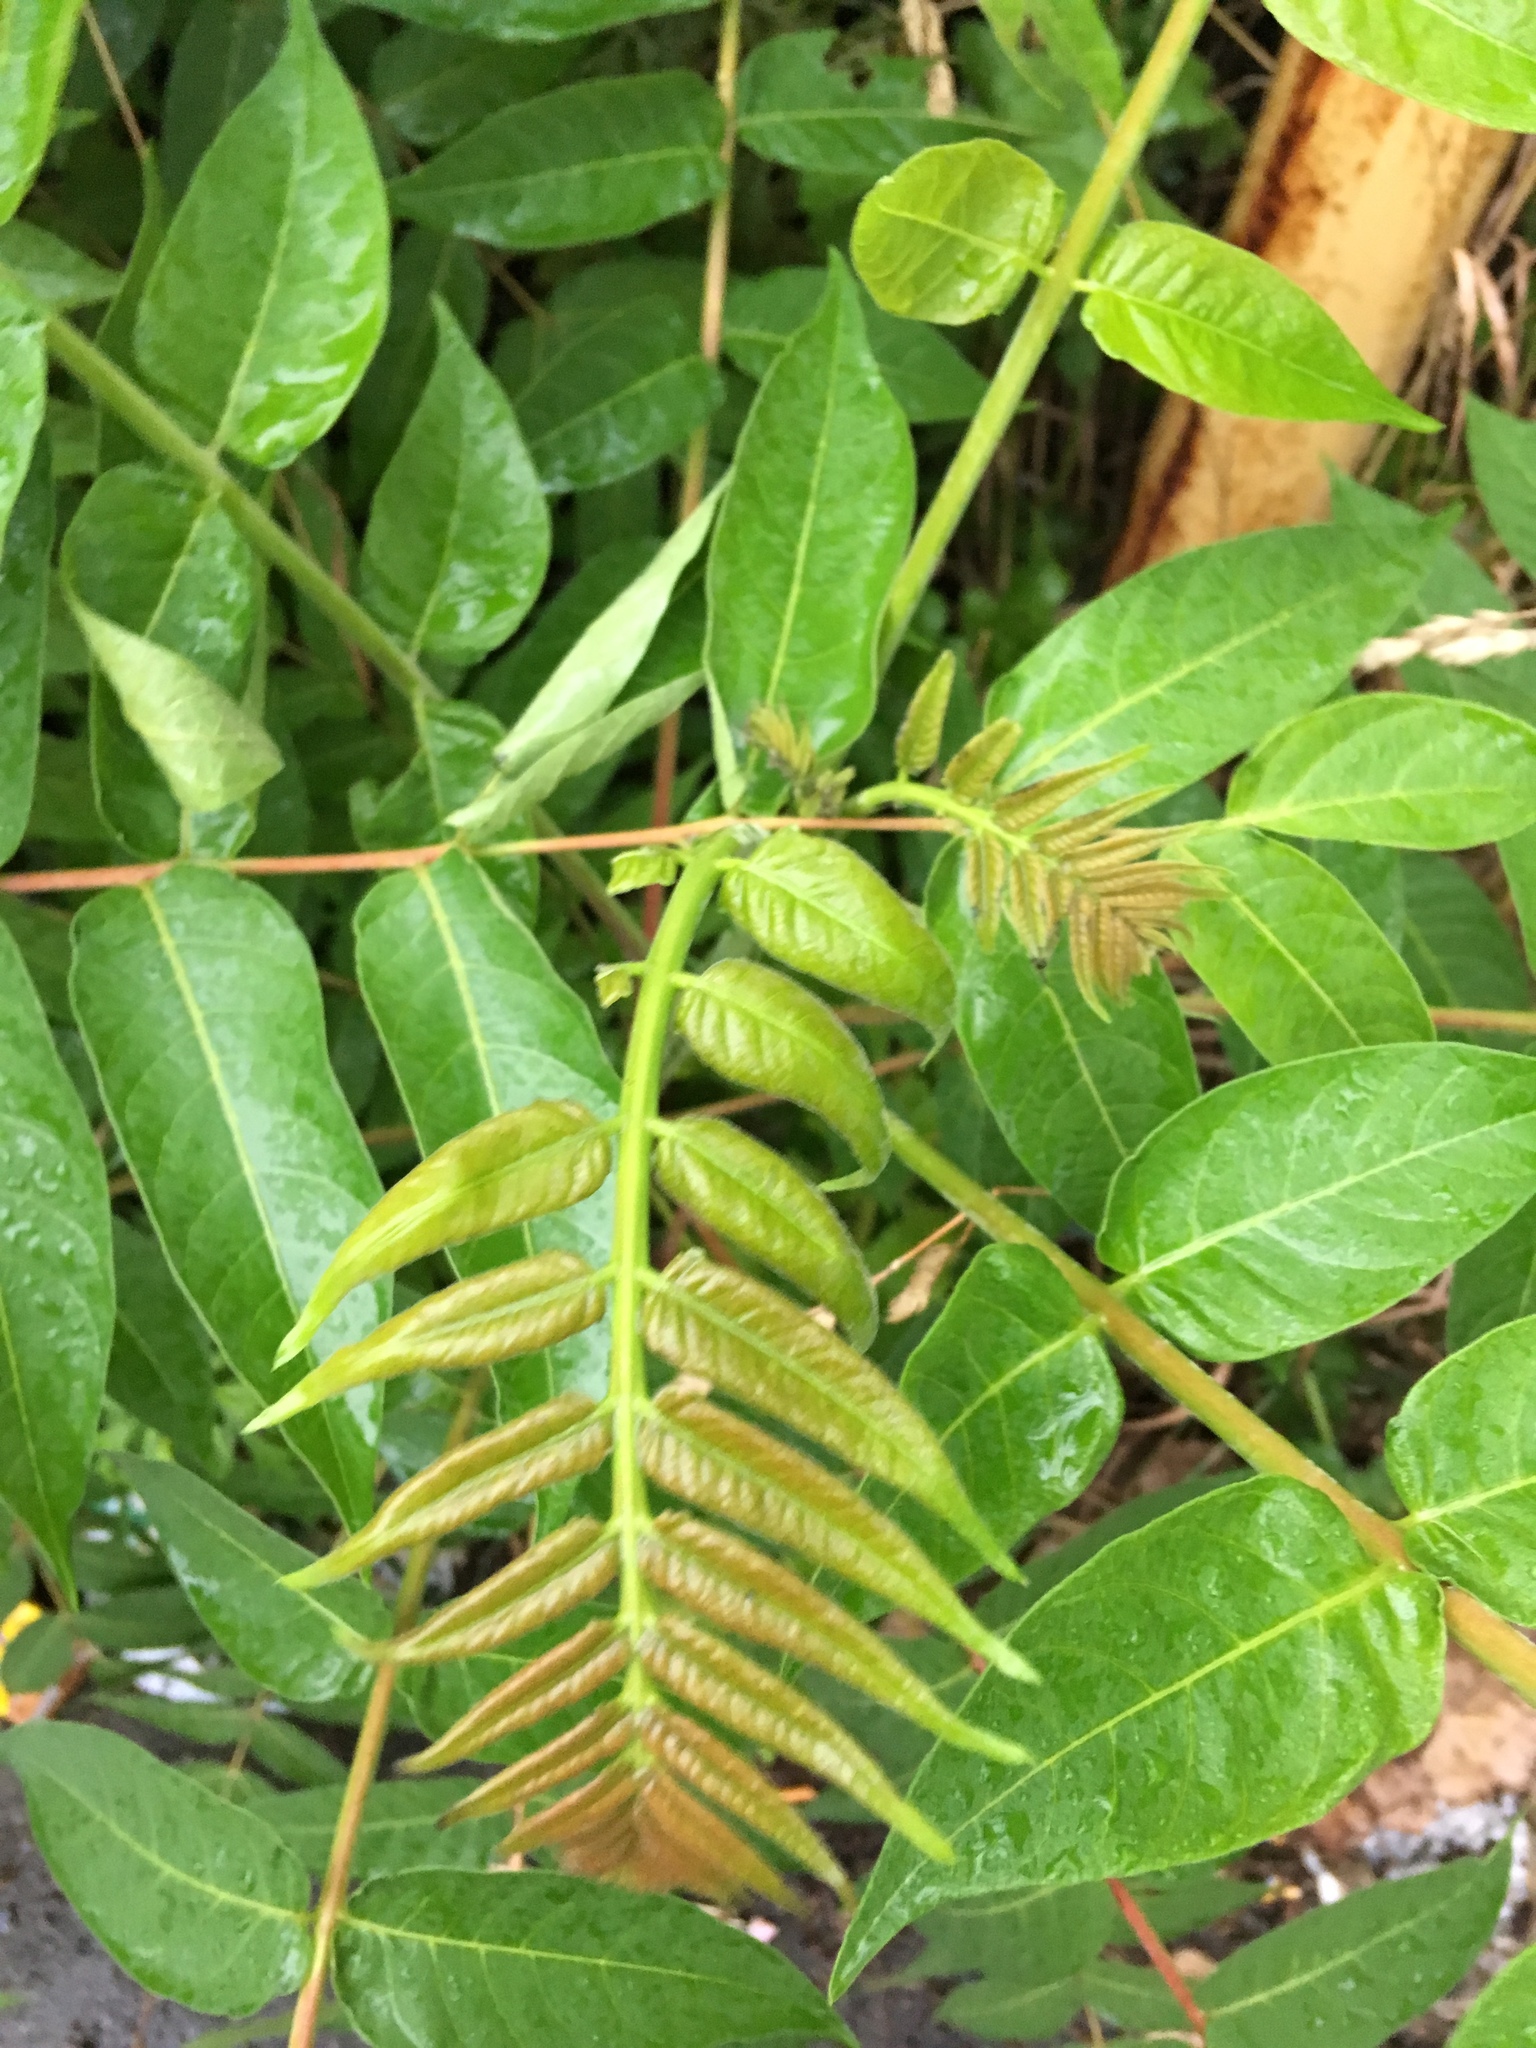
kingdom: Plantae
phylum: Tracheophyta
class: Magnoliopsida
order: Sapindales
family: Simaroubaceae
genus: Ailanthus
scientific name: Ailanthus altissima
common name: Tree-of-heaven
